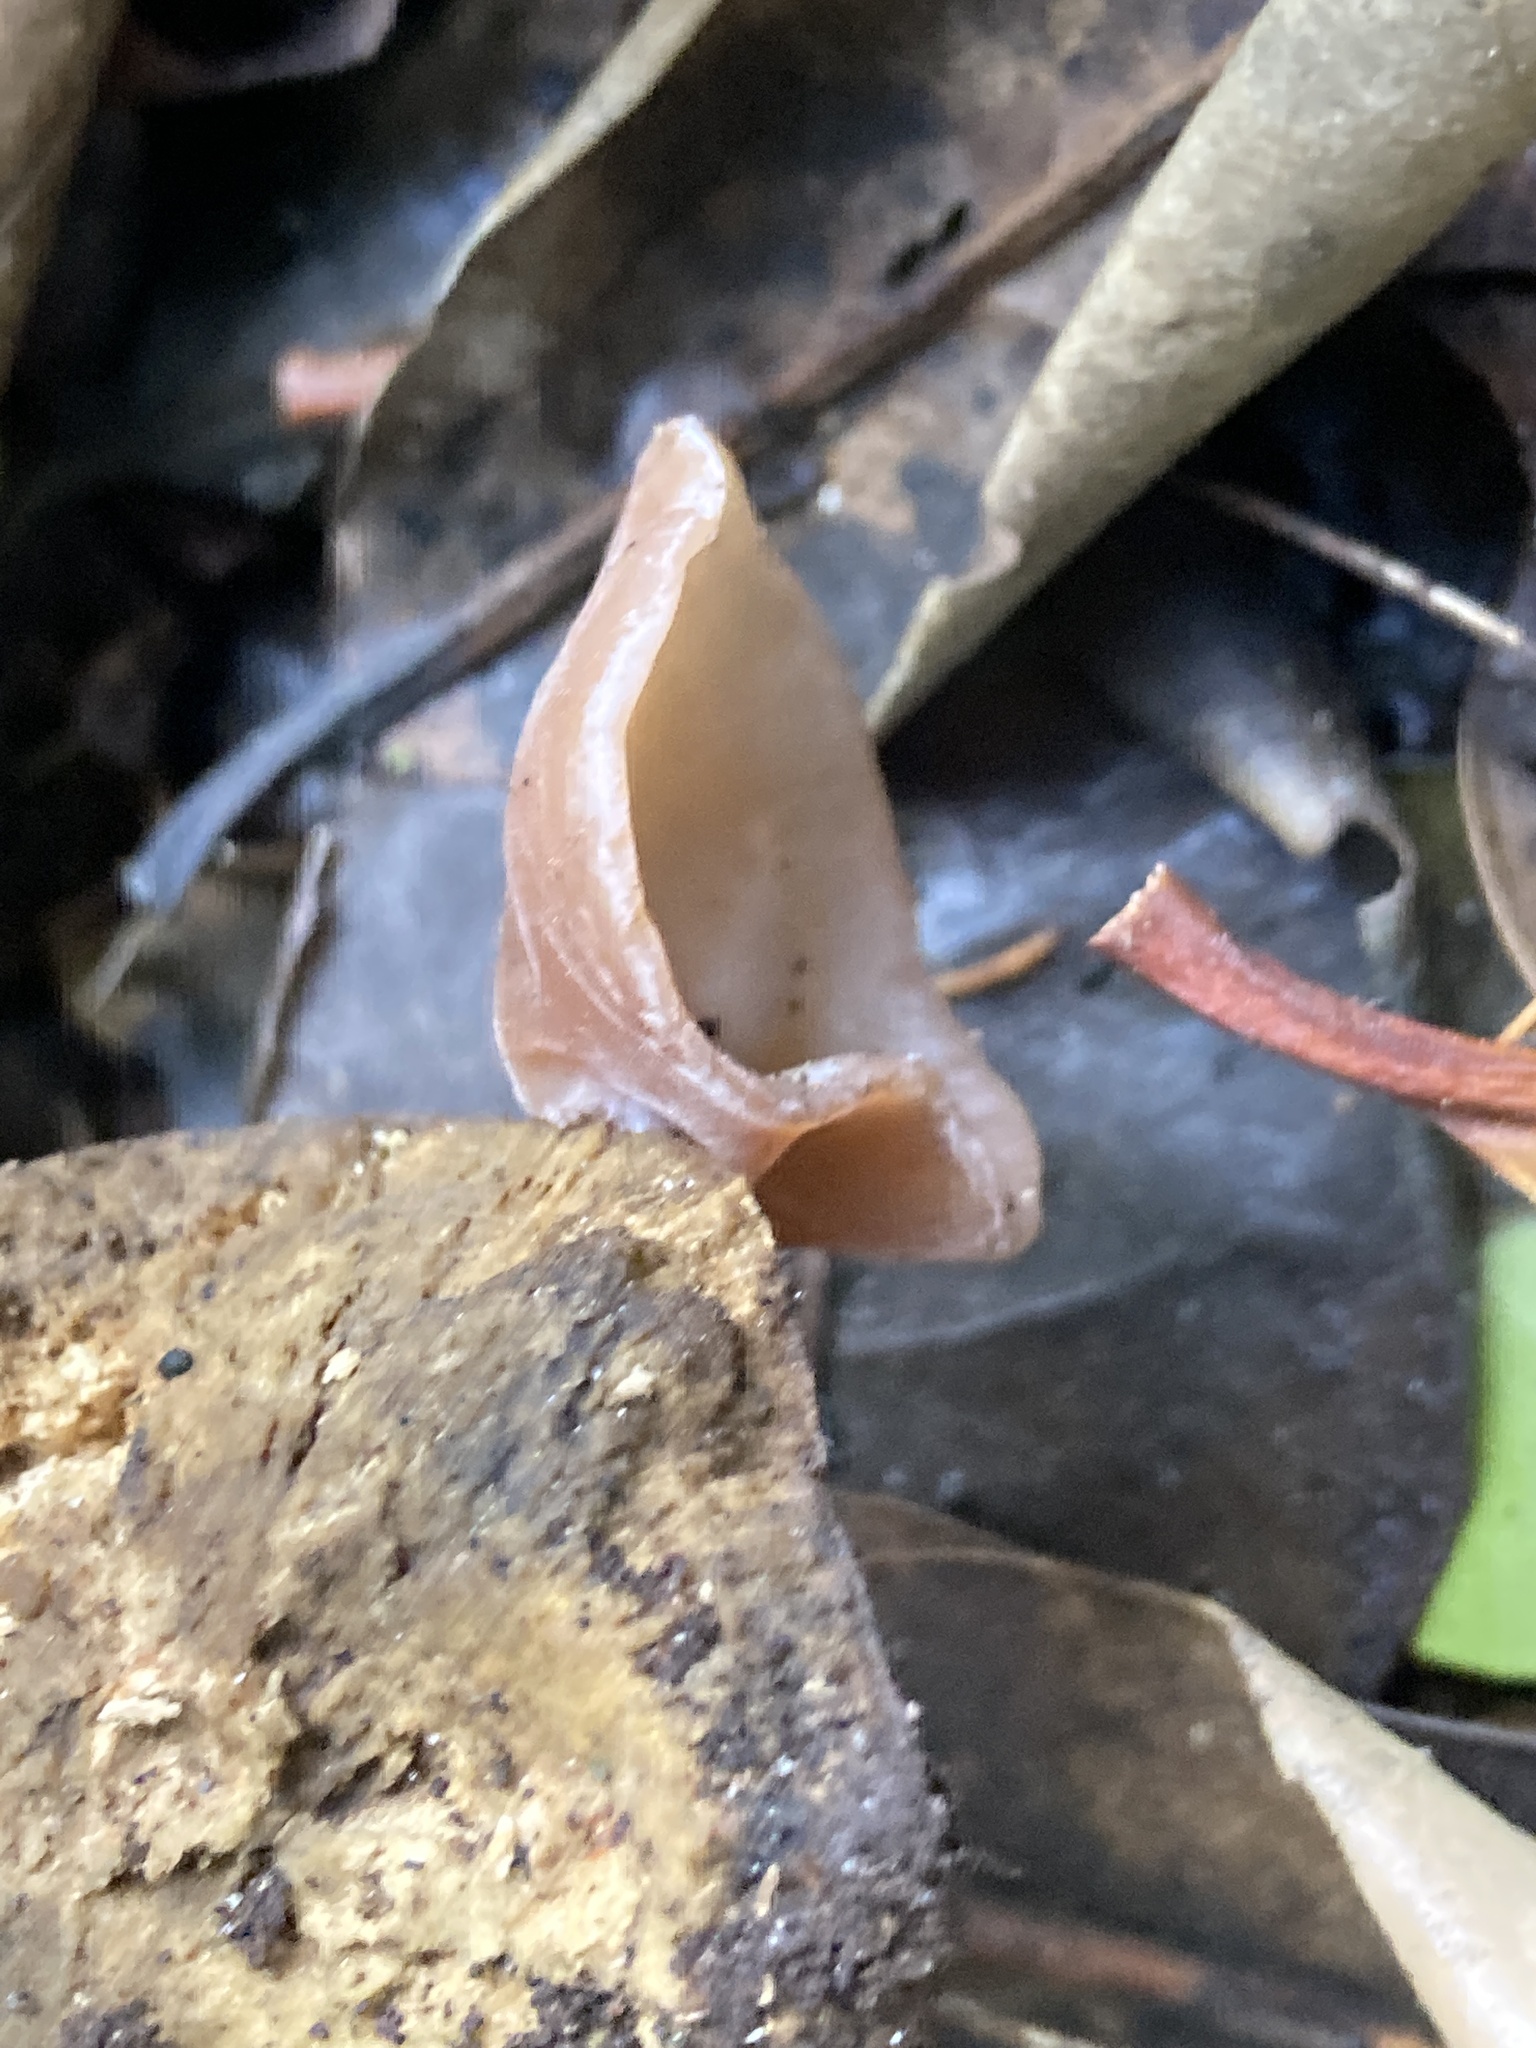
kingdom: Fungi
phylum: Basidiomycota
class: Agaricomycetes
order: Auriculariales
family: Auriculariaceae
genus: Auricularia
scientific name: Auricularia auricula-judae
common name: Jelly ear
